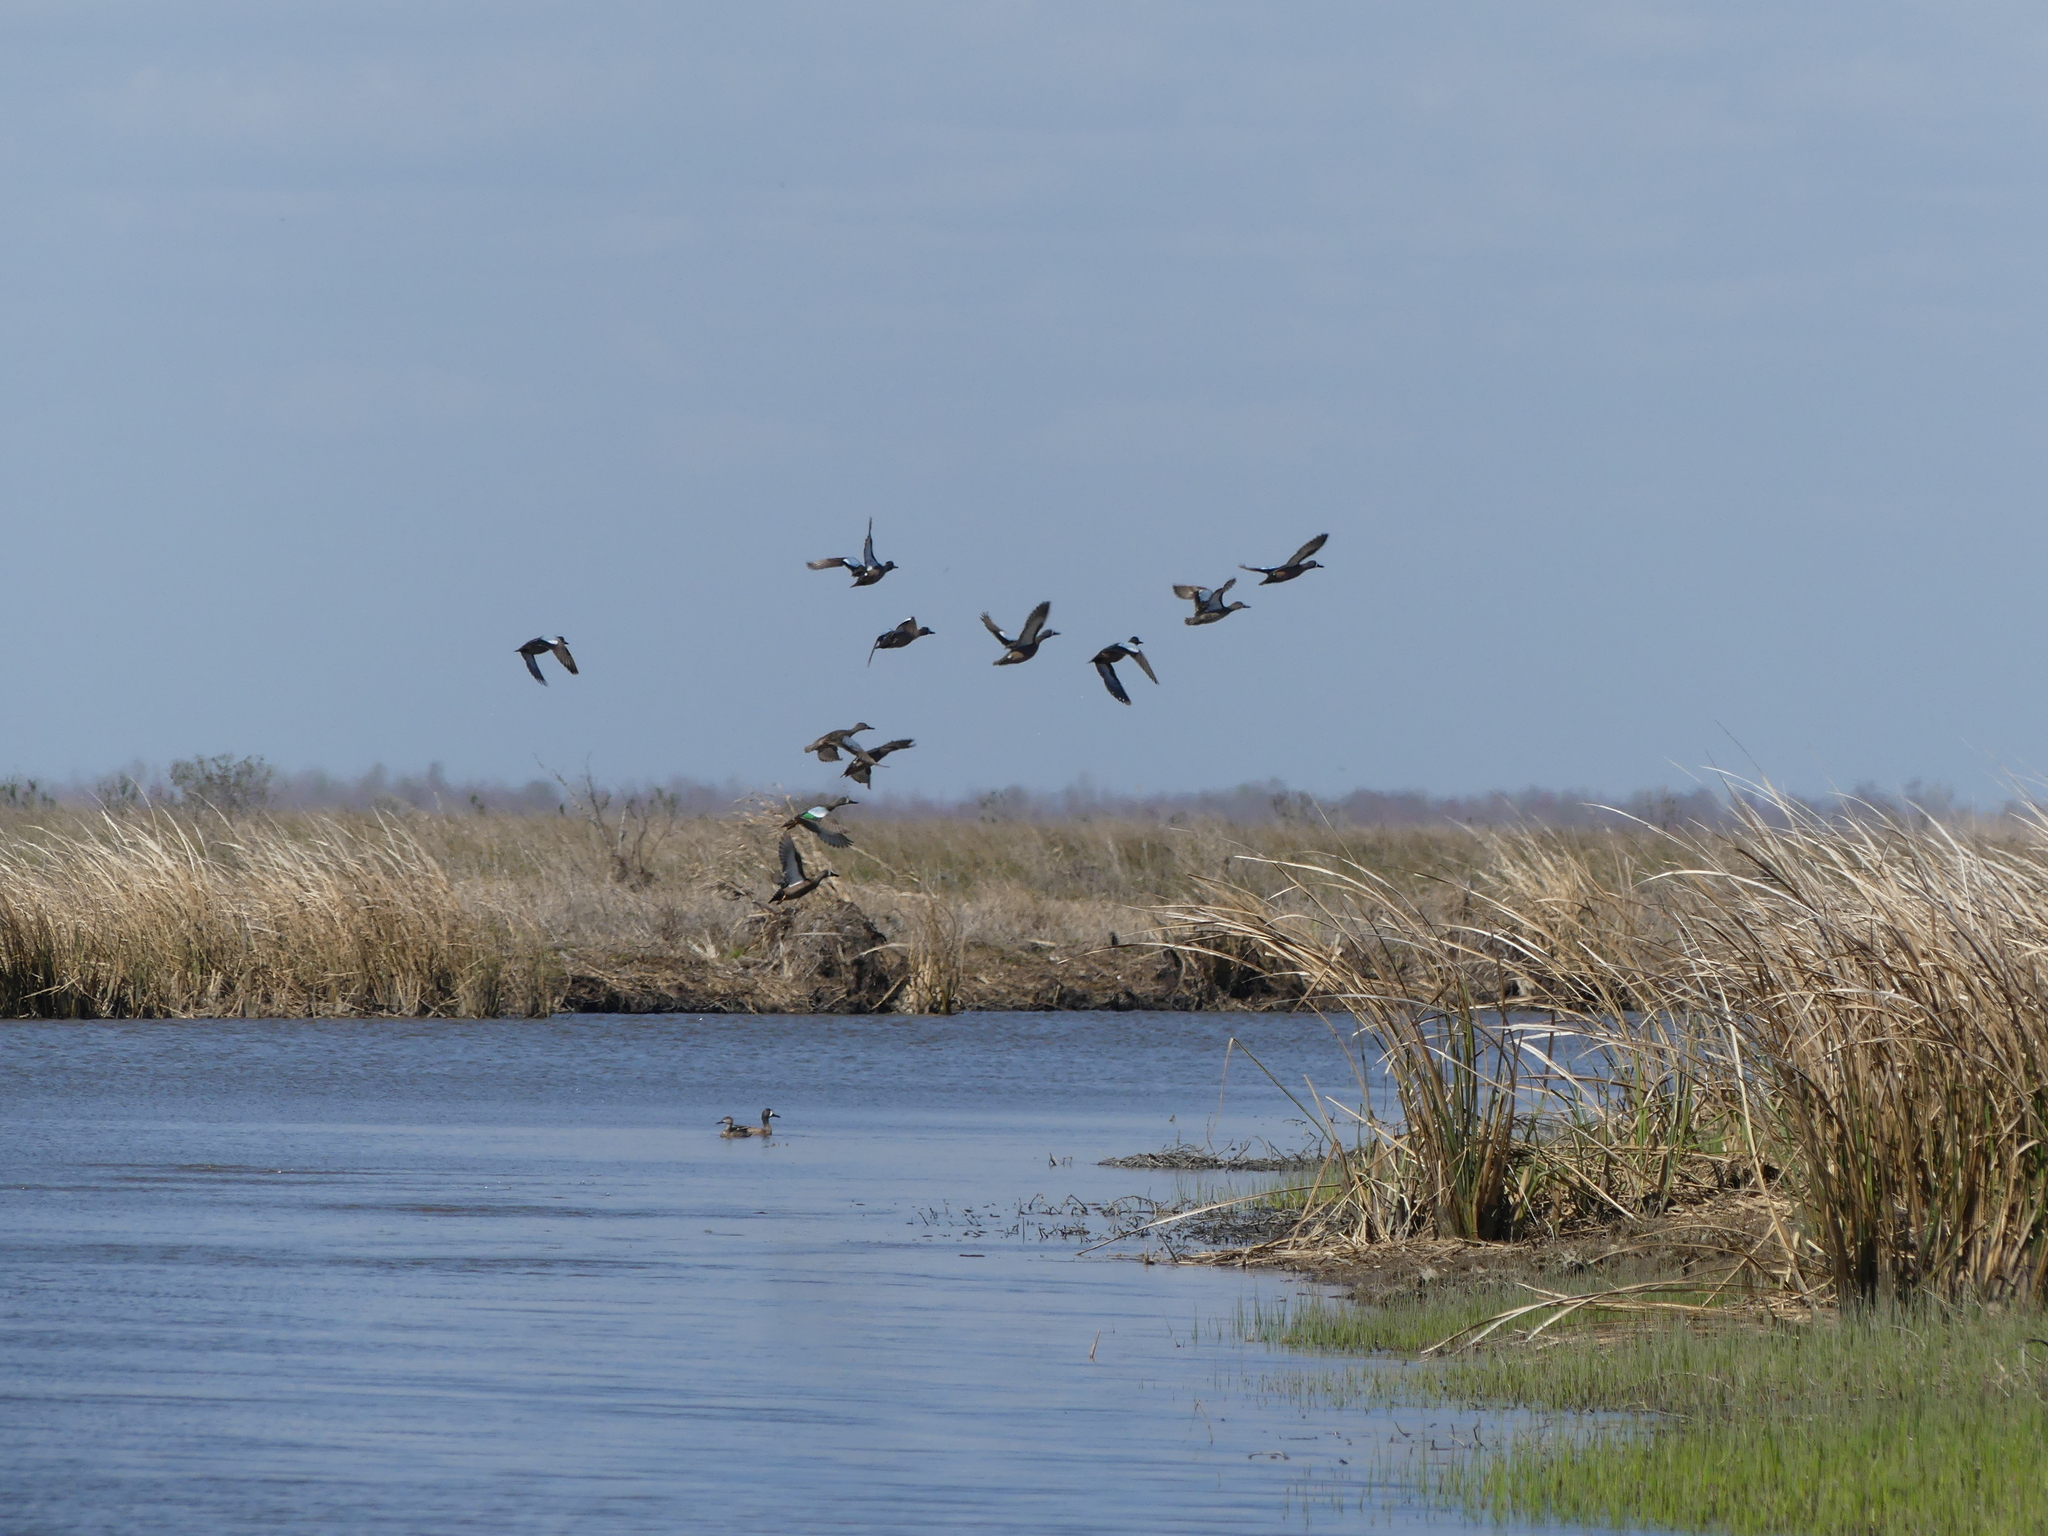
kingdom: Animalia
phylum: Chordata
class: Aves
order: Anseriformes
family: Anatidae
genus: Spatula
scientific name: Spatula discors
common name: Blue-winged teal
